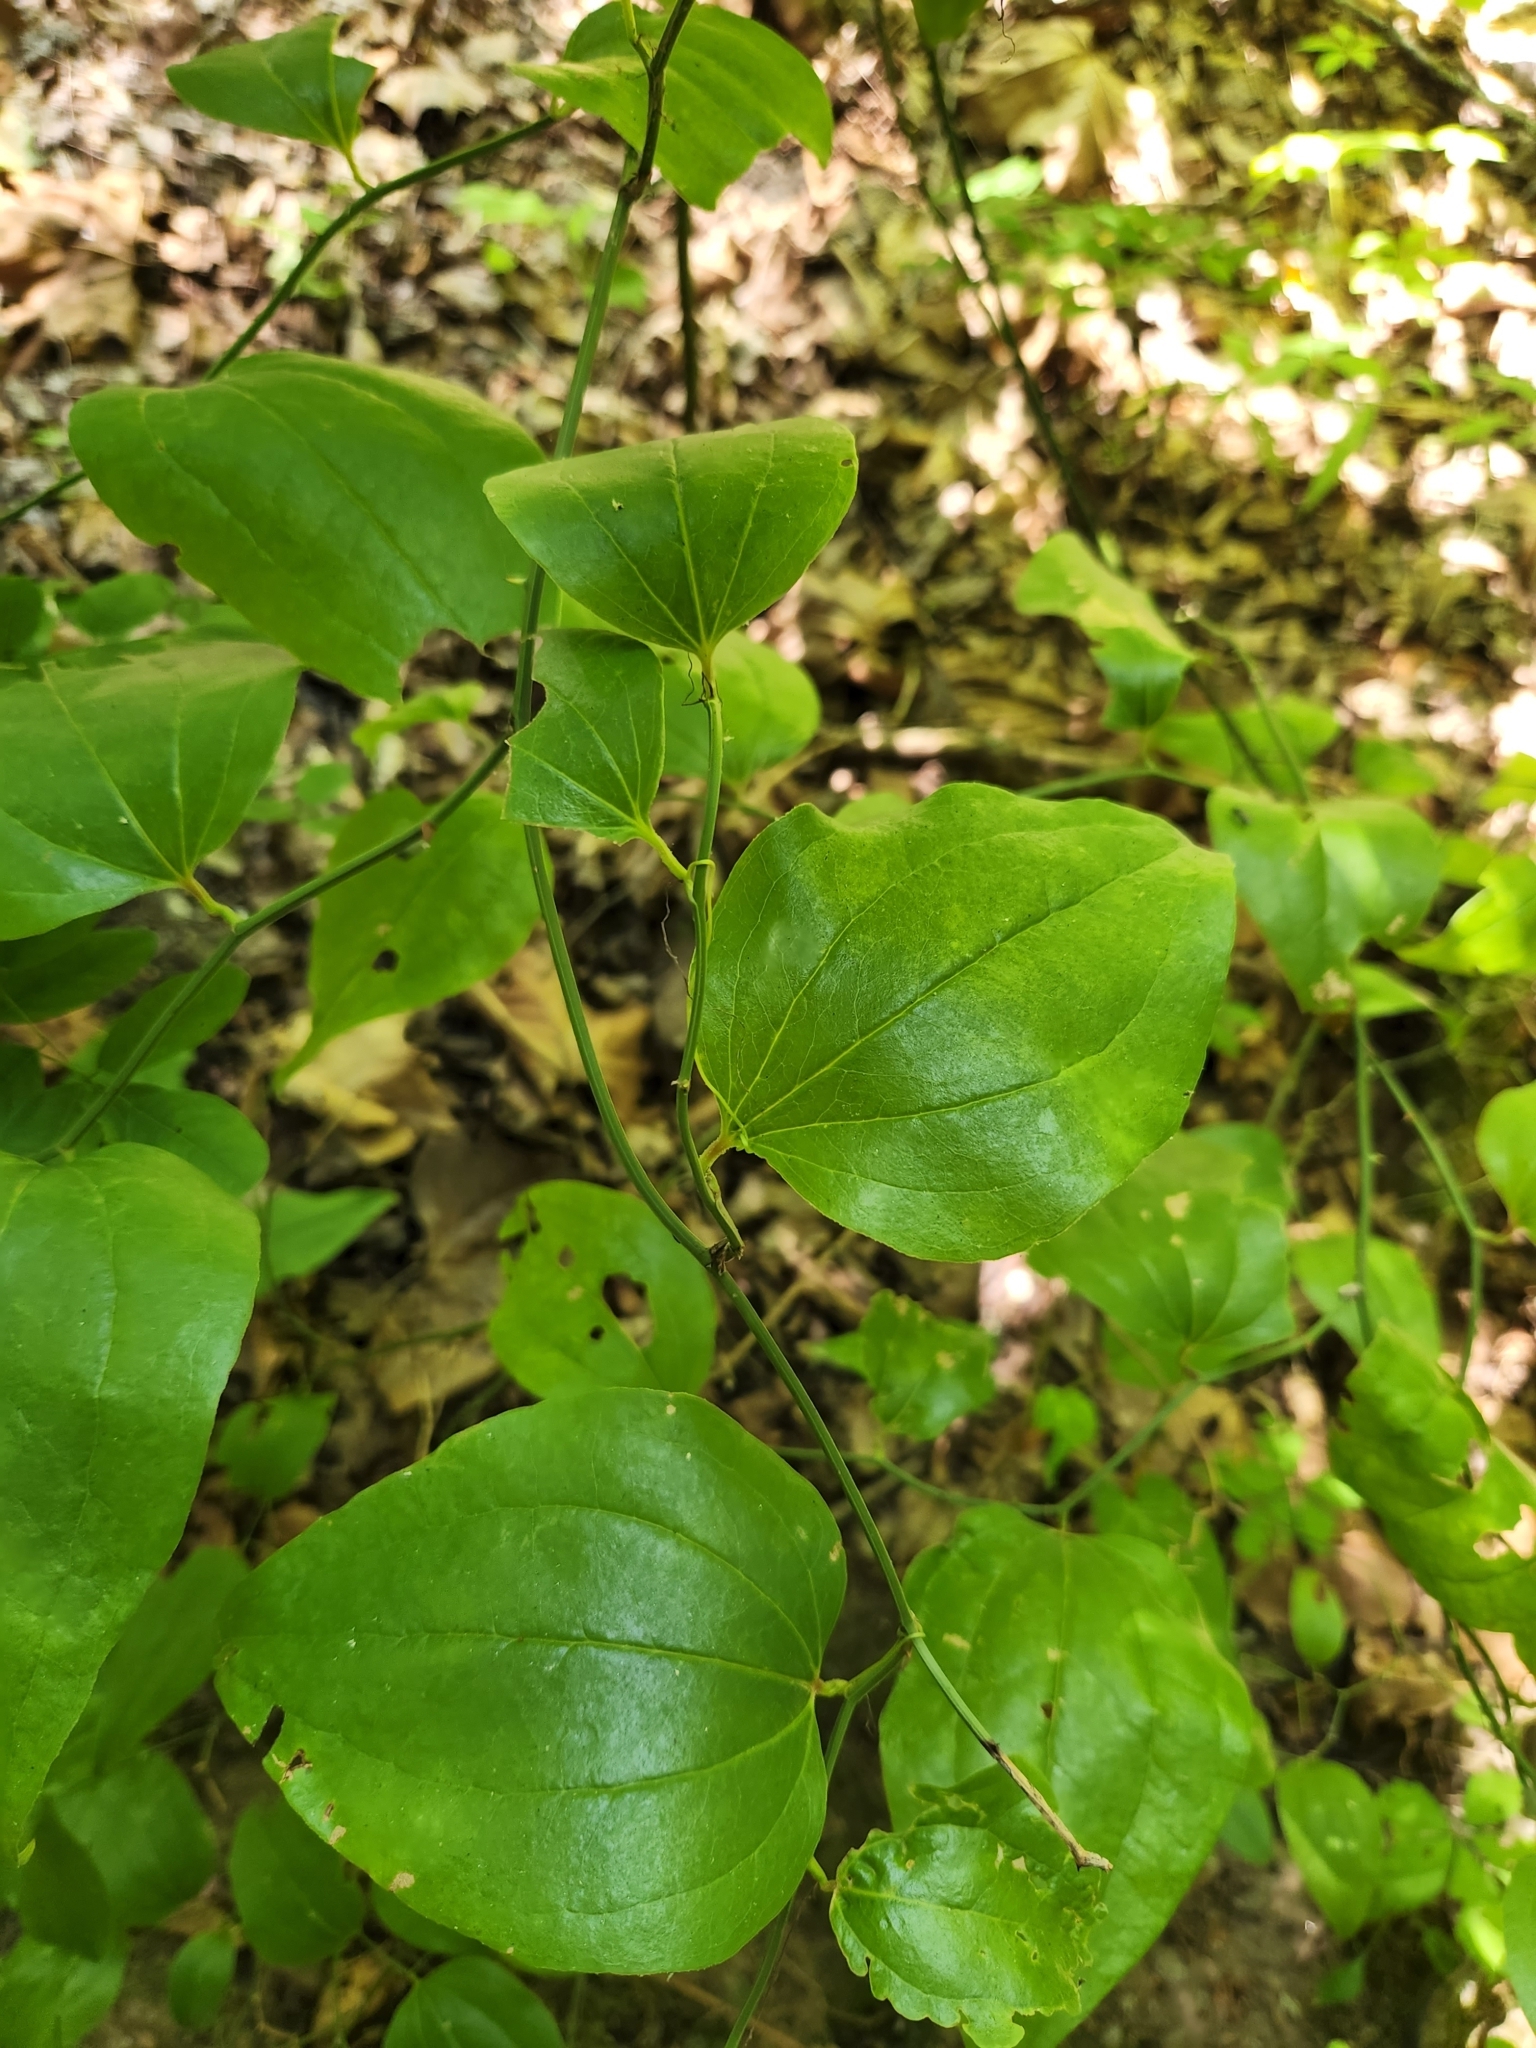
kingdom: Plantae
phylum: Tracheophyta
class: Liliopsida
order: Liliales
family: Smilacaceae
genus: Smilax
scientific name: Smilax rotundifolia
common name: Bullbriar
